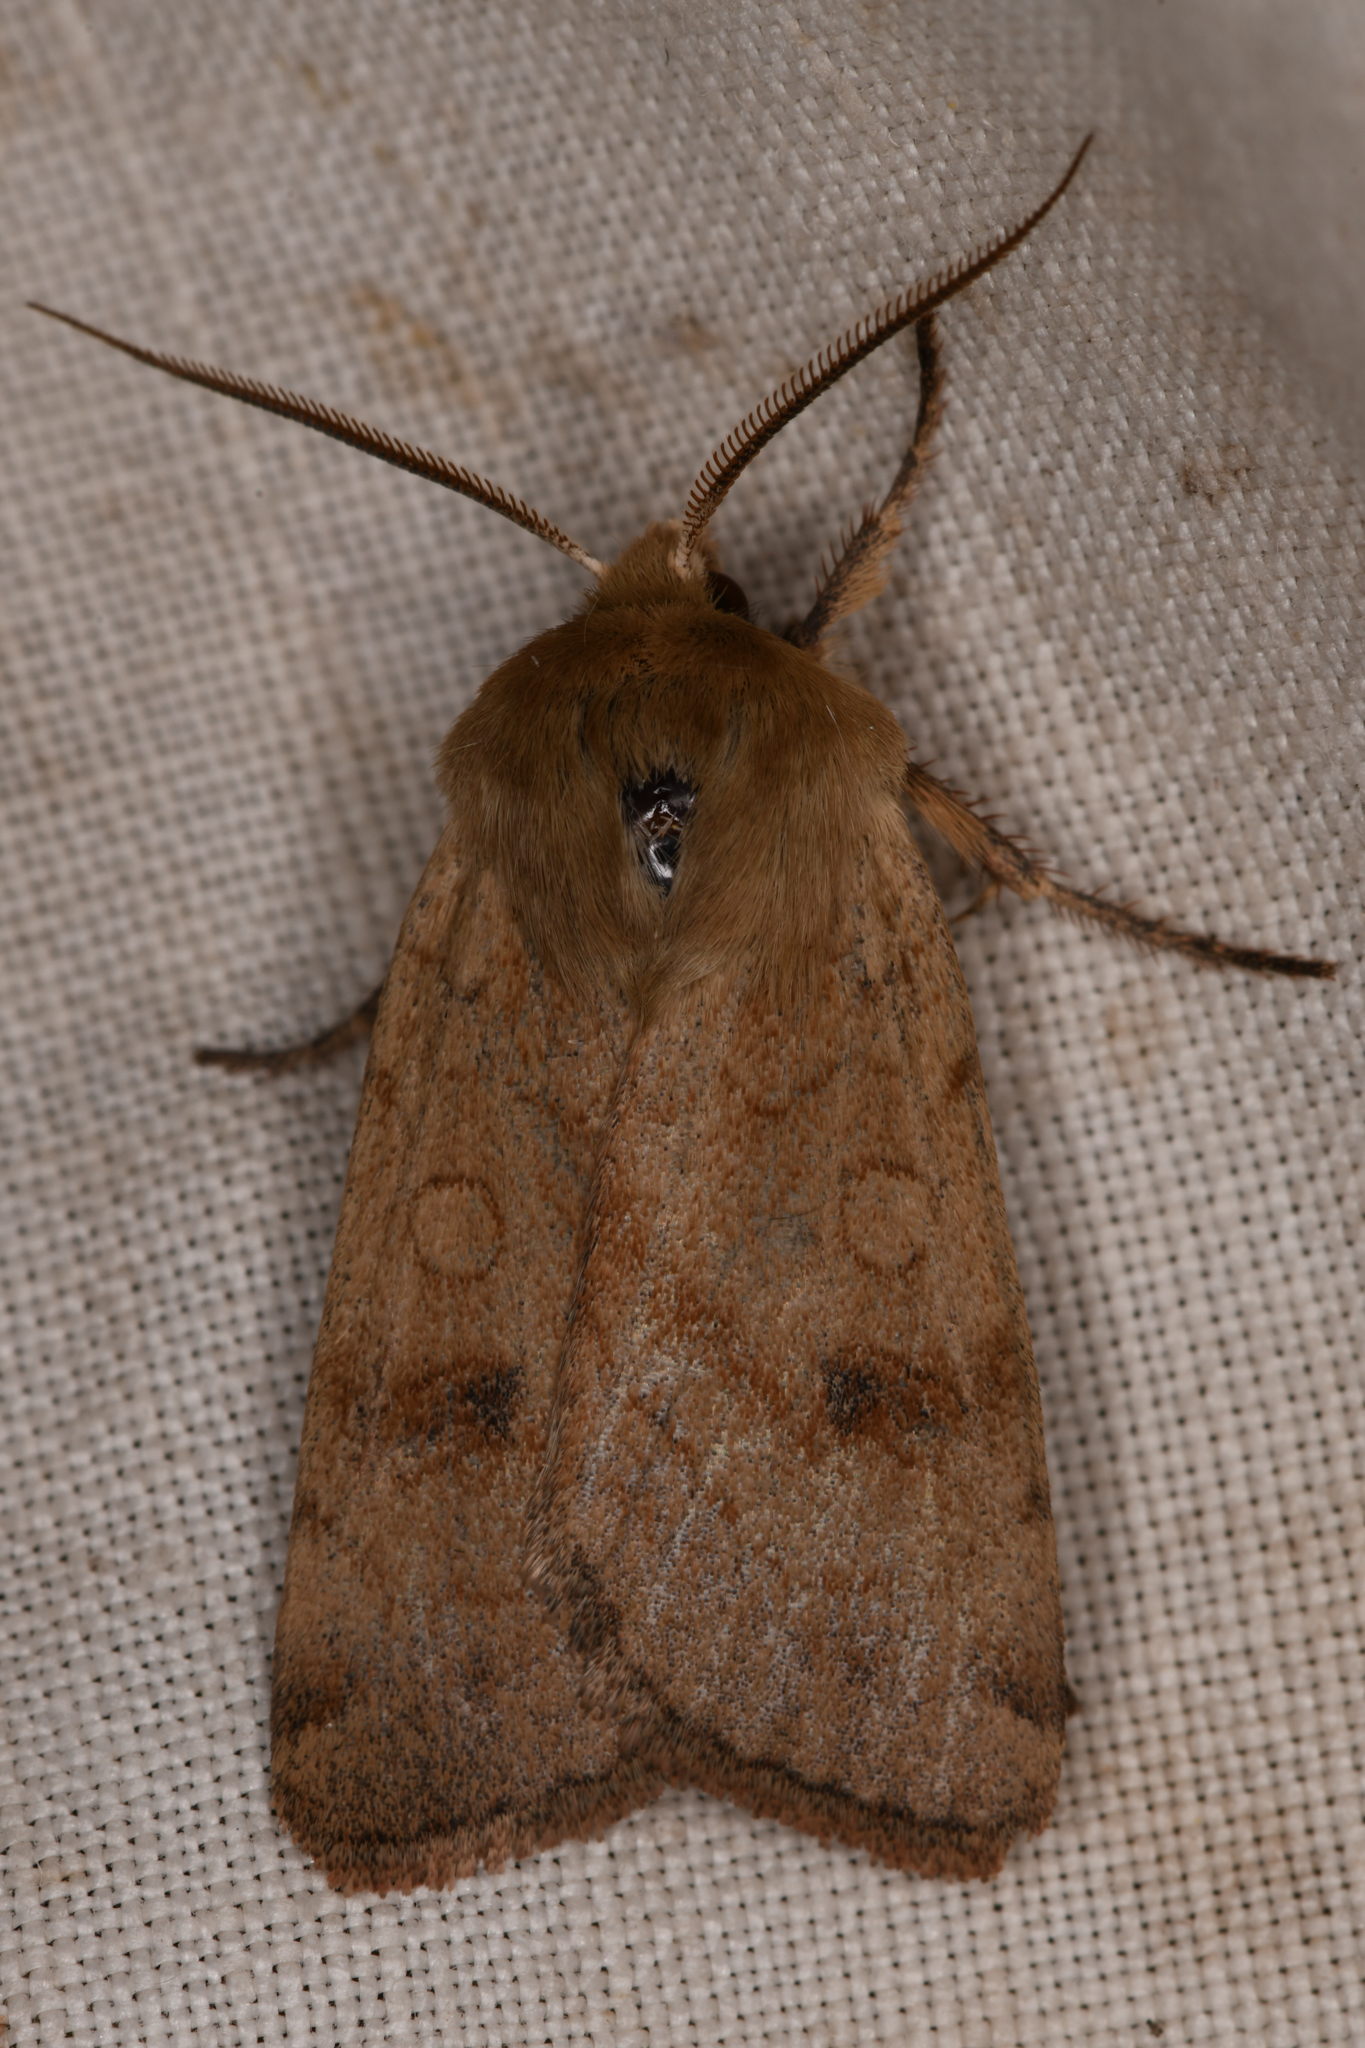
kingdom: Animalia
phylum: Arthropoda
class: Insecta
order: Lepidoptera
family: Noctuidae
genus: Paradiarsia
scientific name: Paradiarsia littoralis
